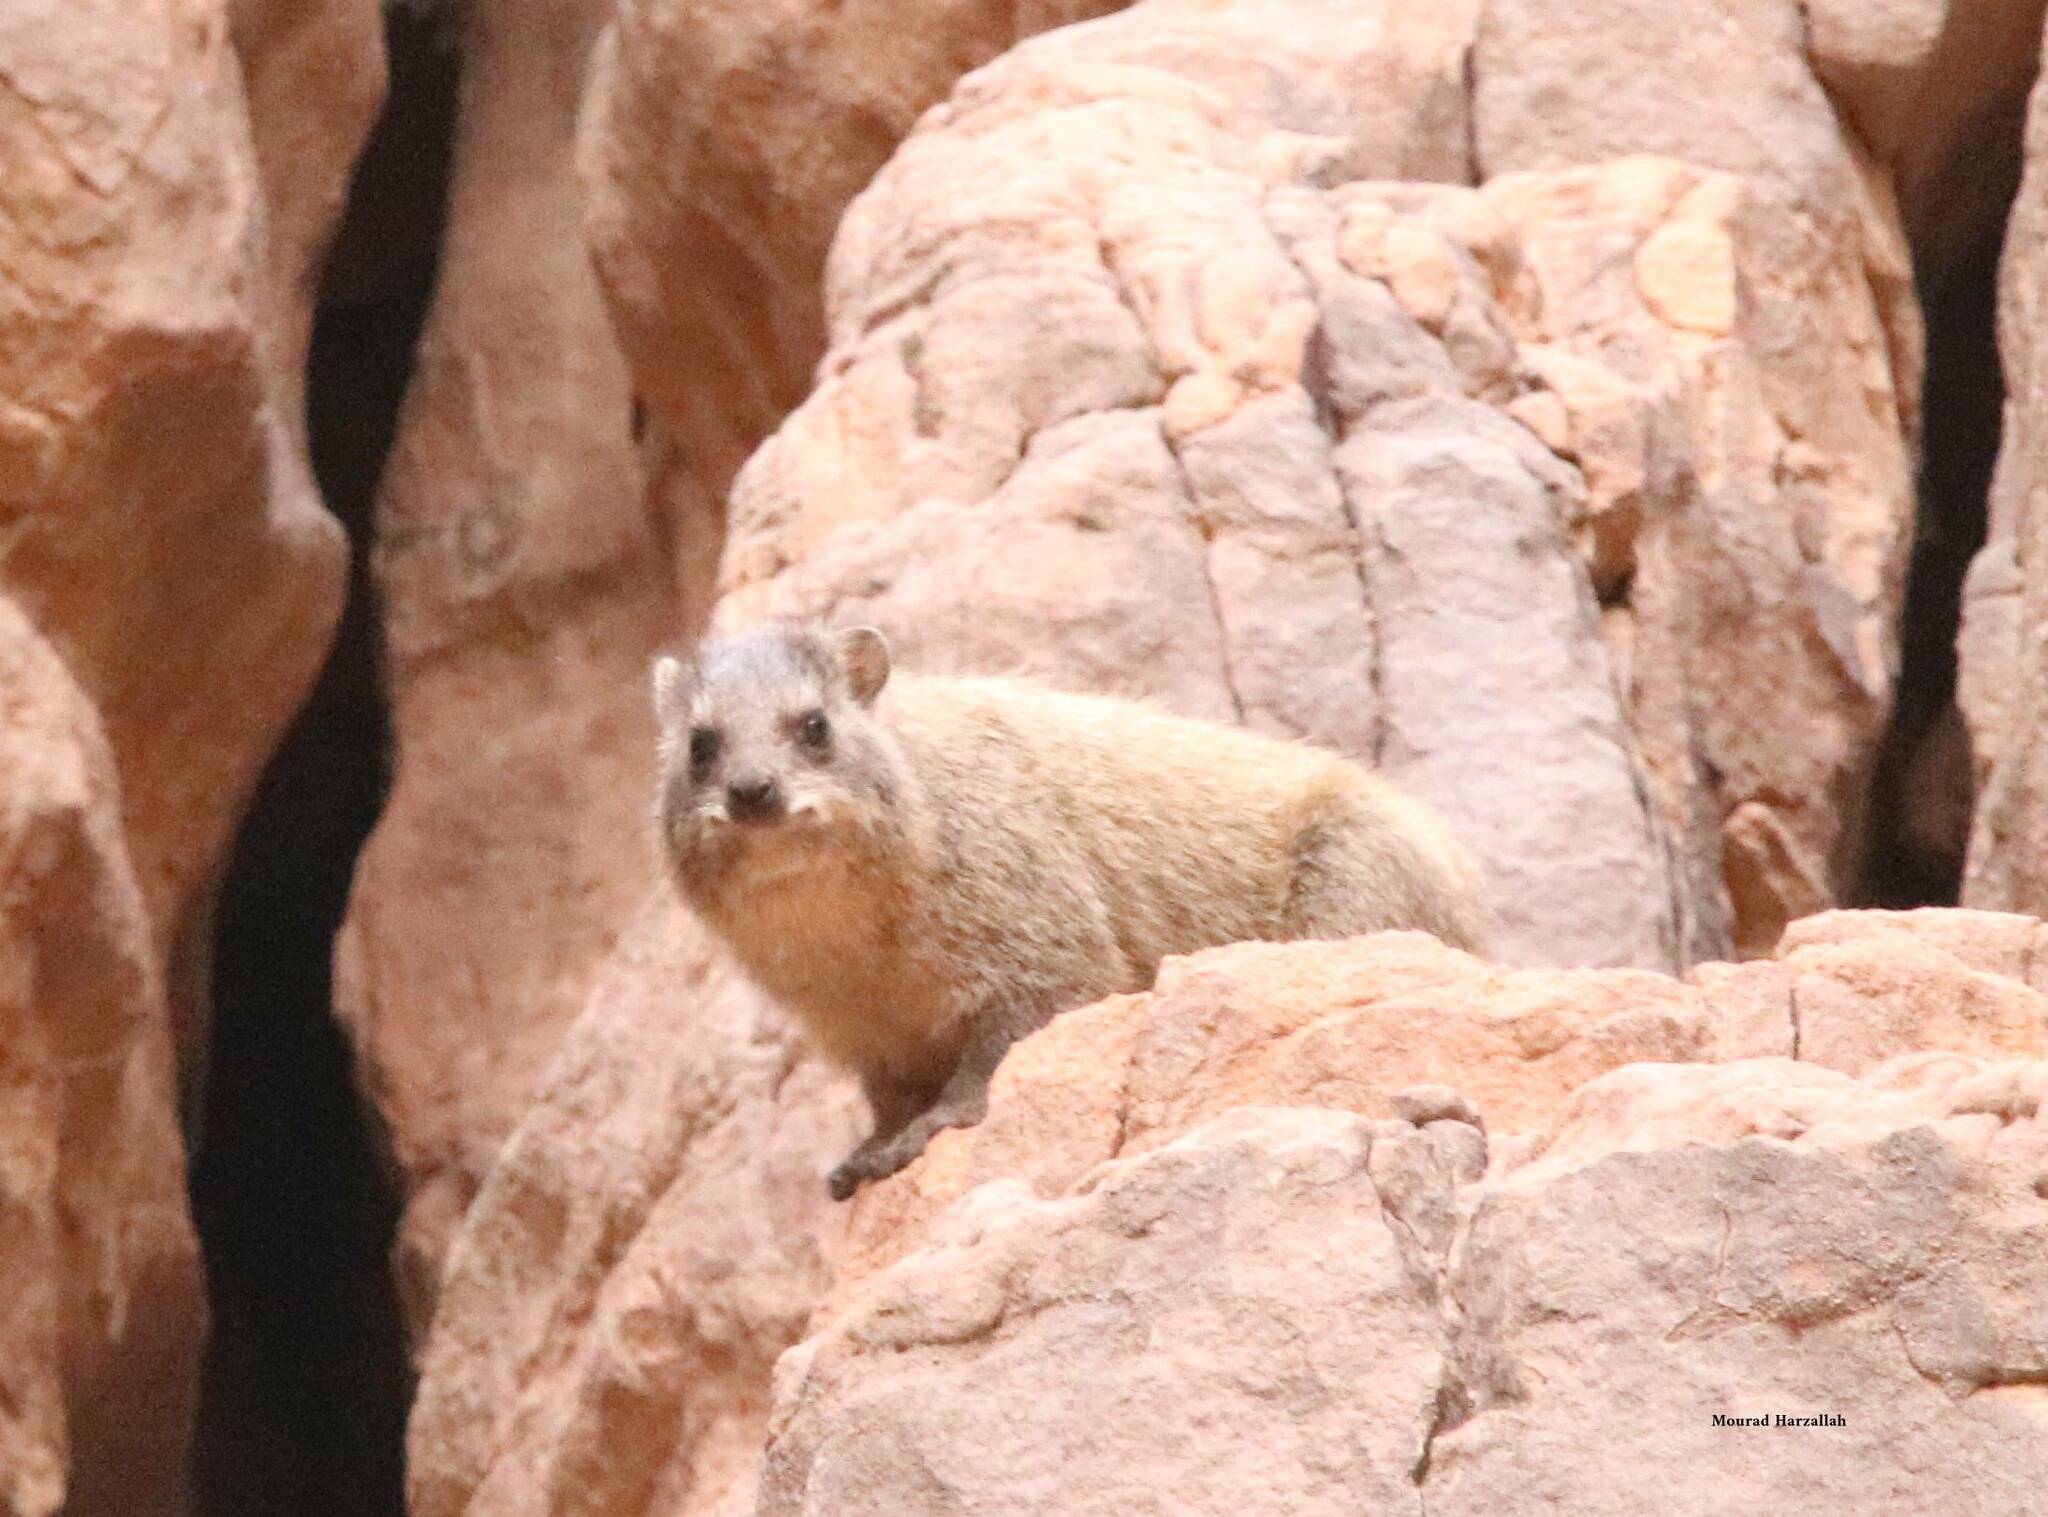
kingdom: Animalia
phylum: Chordata
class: Mammalia
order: Hyracoidea
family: Procaviidae
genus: Procavia
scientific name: Procavia capensis
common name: Rock hyrax
